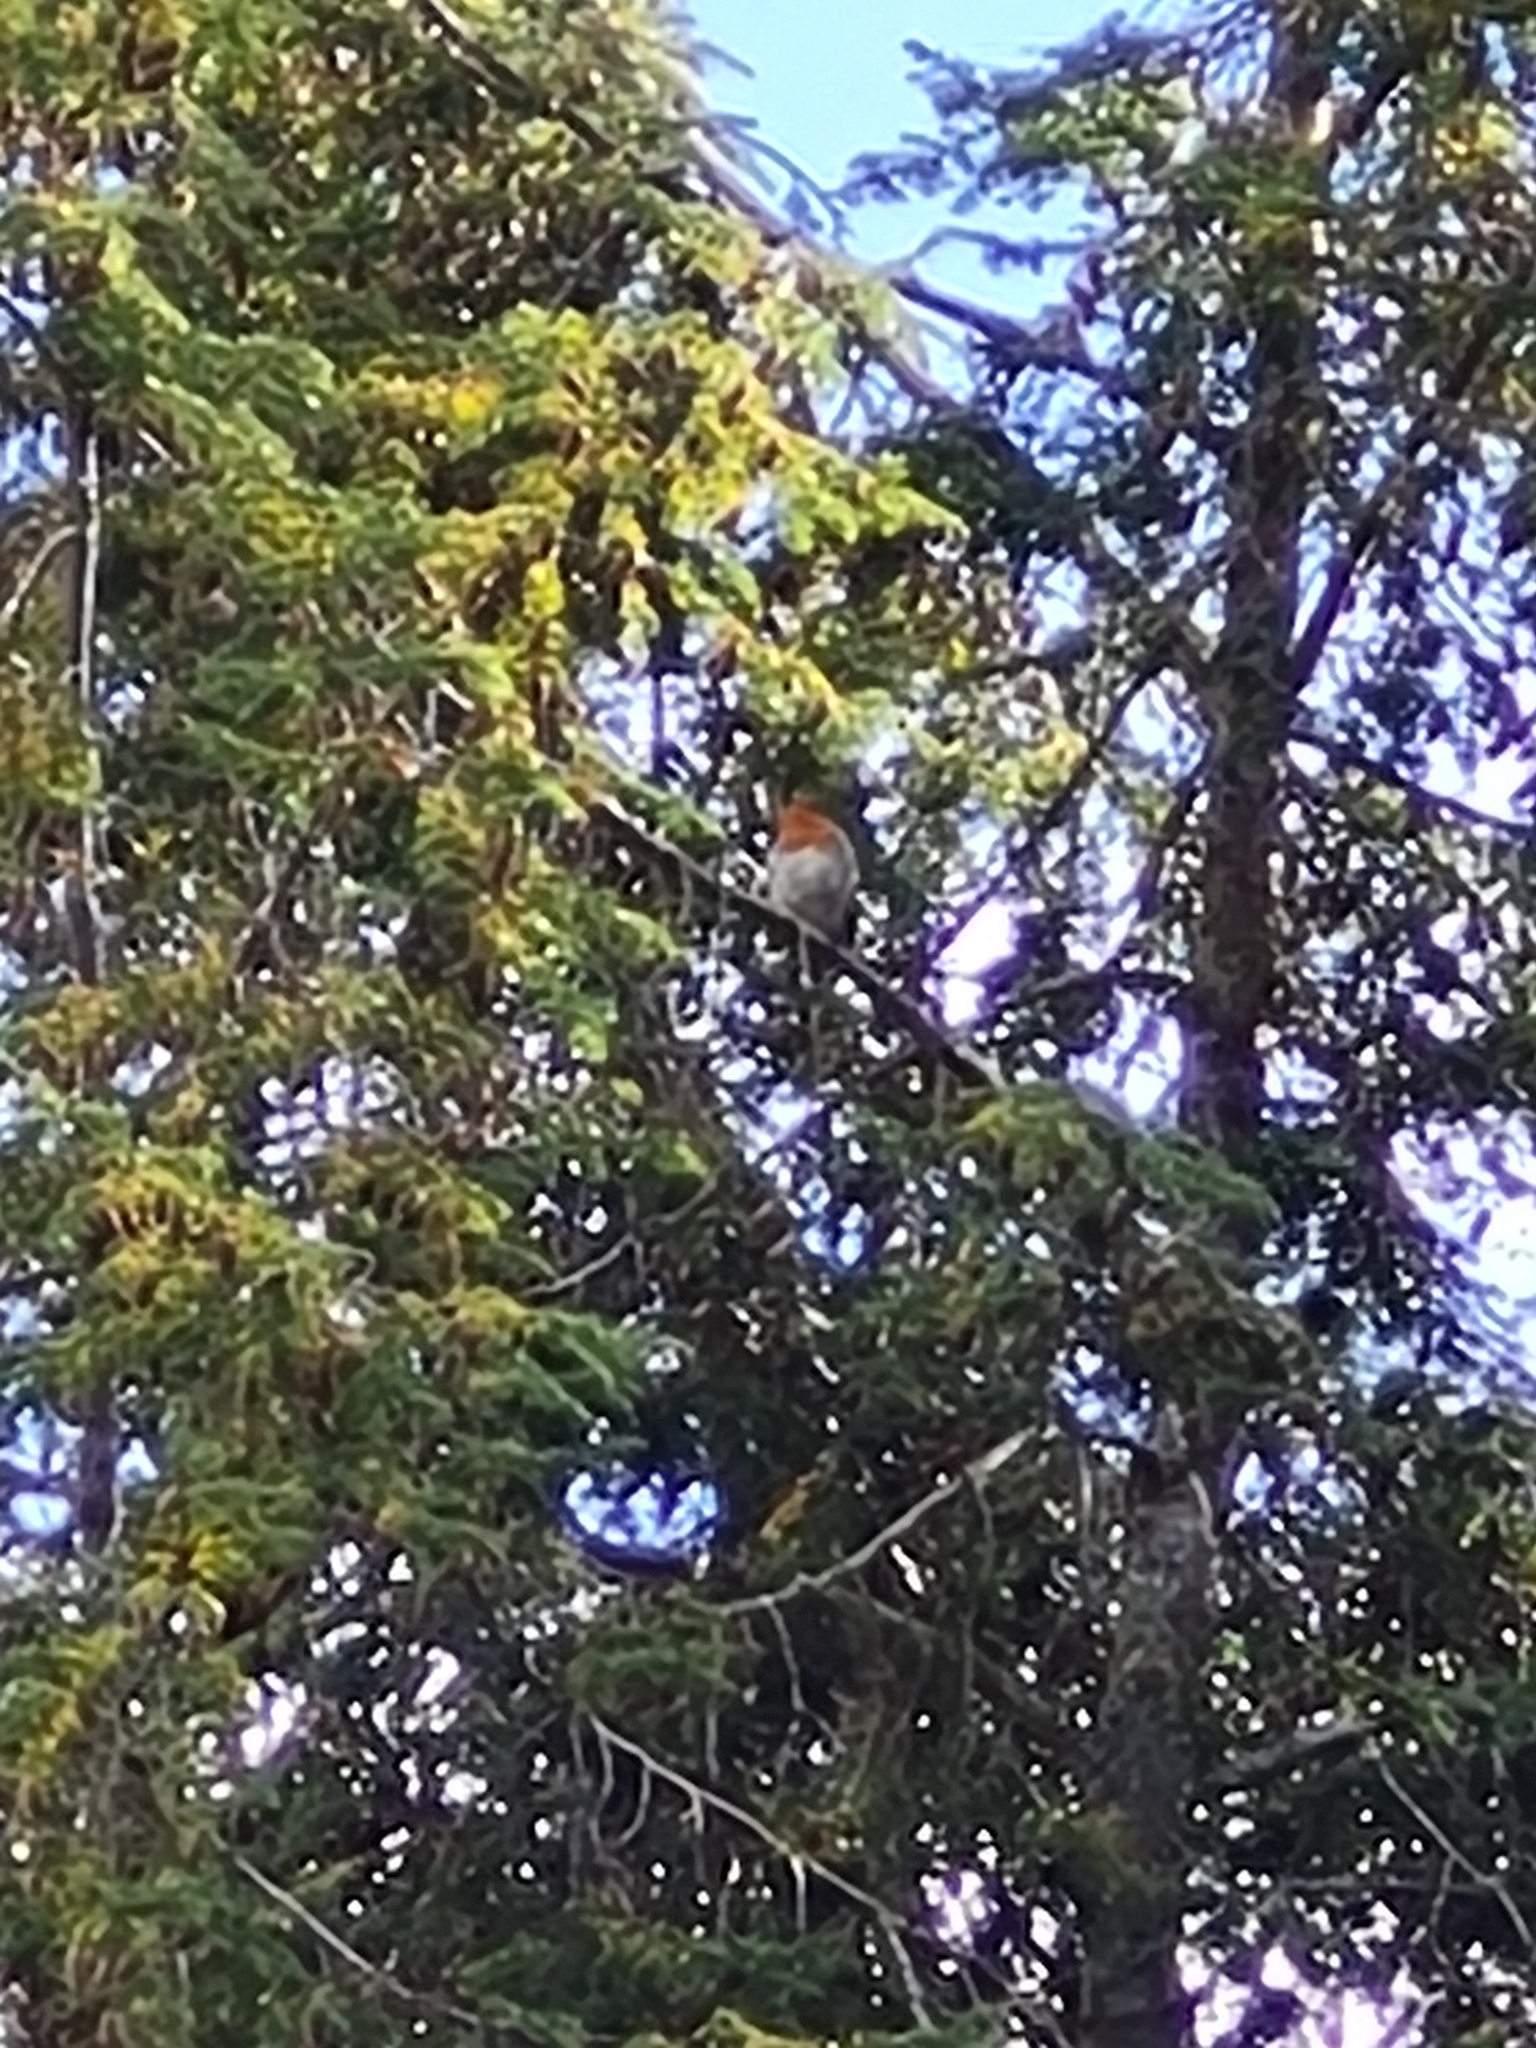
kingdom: Animalia
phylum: Chordata
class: Aves
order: Passeriformes
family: Muscicapidae
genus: Erithacus
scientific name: Erithacus rubecula
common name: European robin
